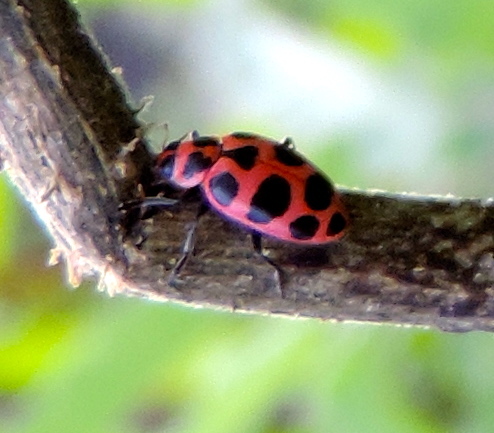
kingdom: Animalia
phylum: Arthropoda
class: Insecta
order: Coleoptera
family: Coccinellidae
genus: Coleomegilla
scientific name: Coleomegilla maculata
